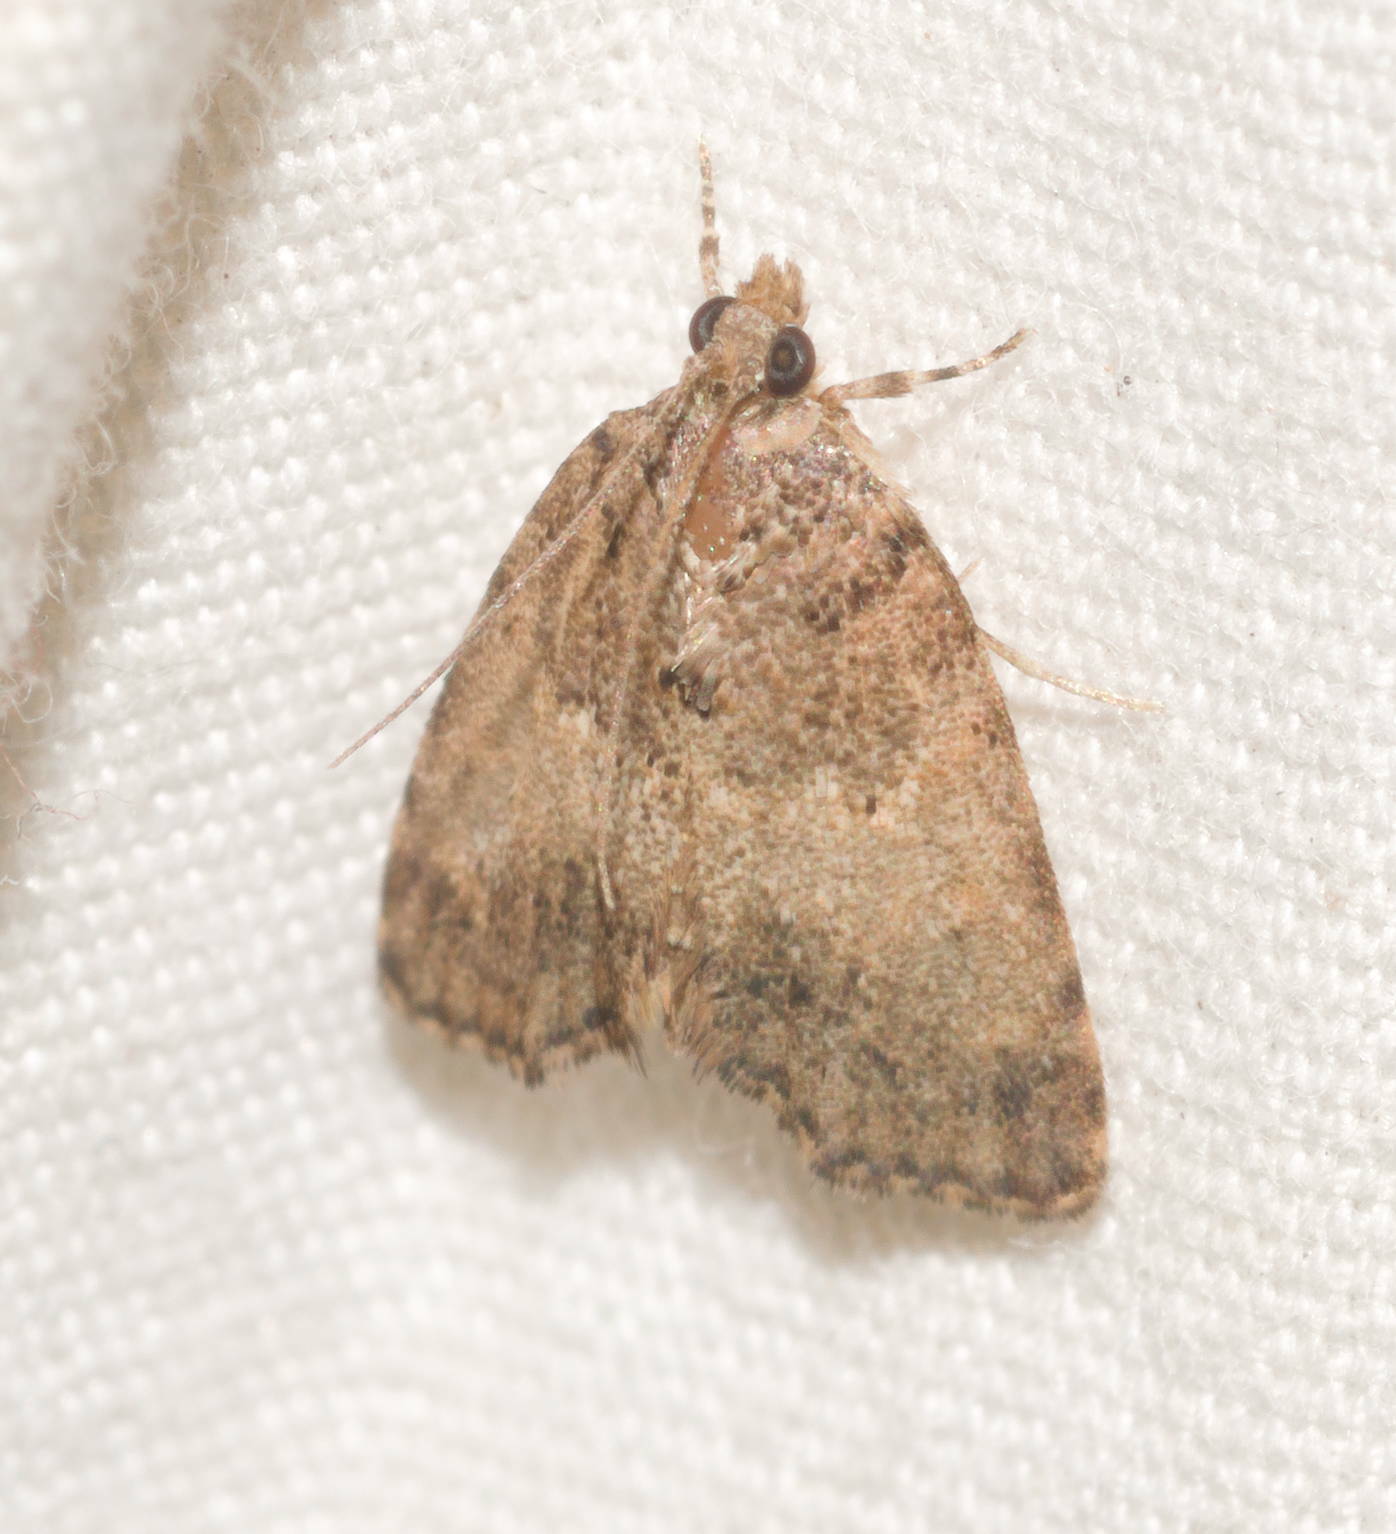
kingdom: Animalia
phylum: Arthropoda
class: Insecta
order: Lepidoptera
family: Crambidae
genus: Mestolobes
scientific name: Mestolobes abnormis
